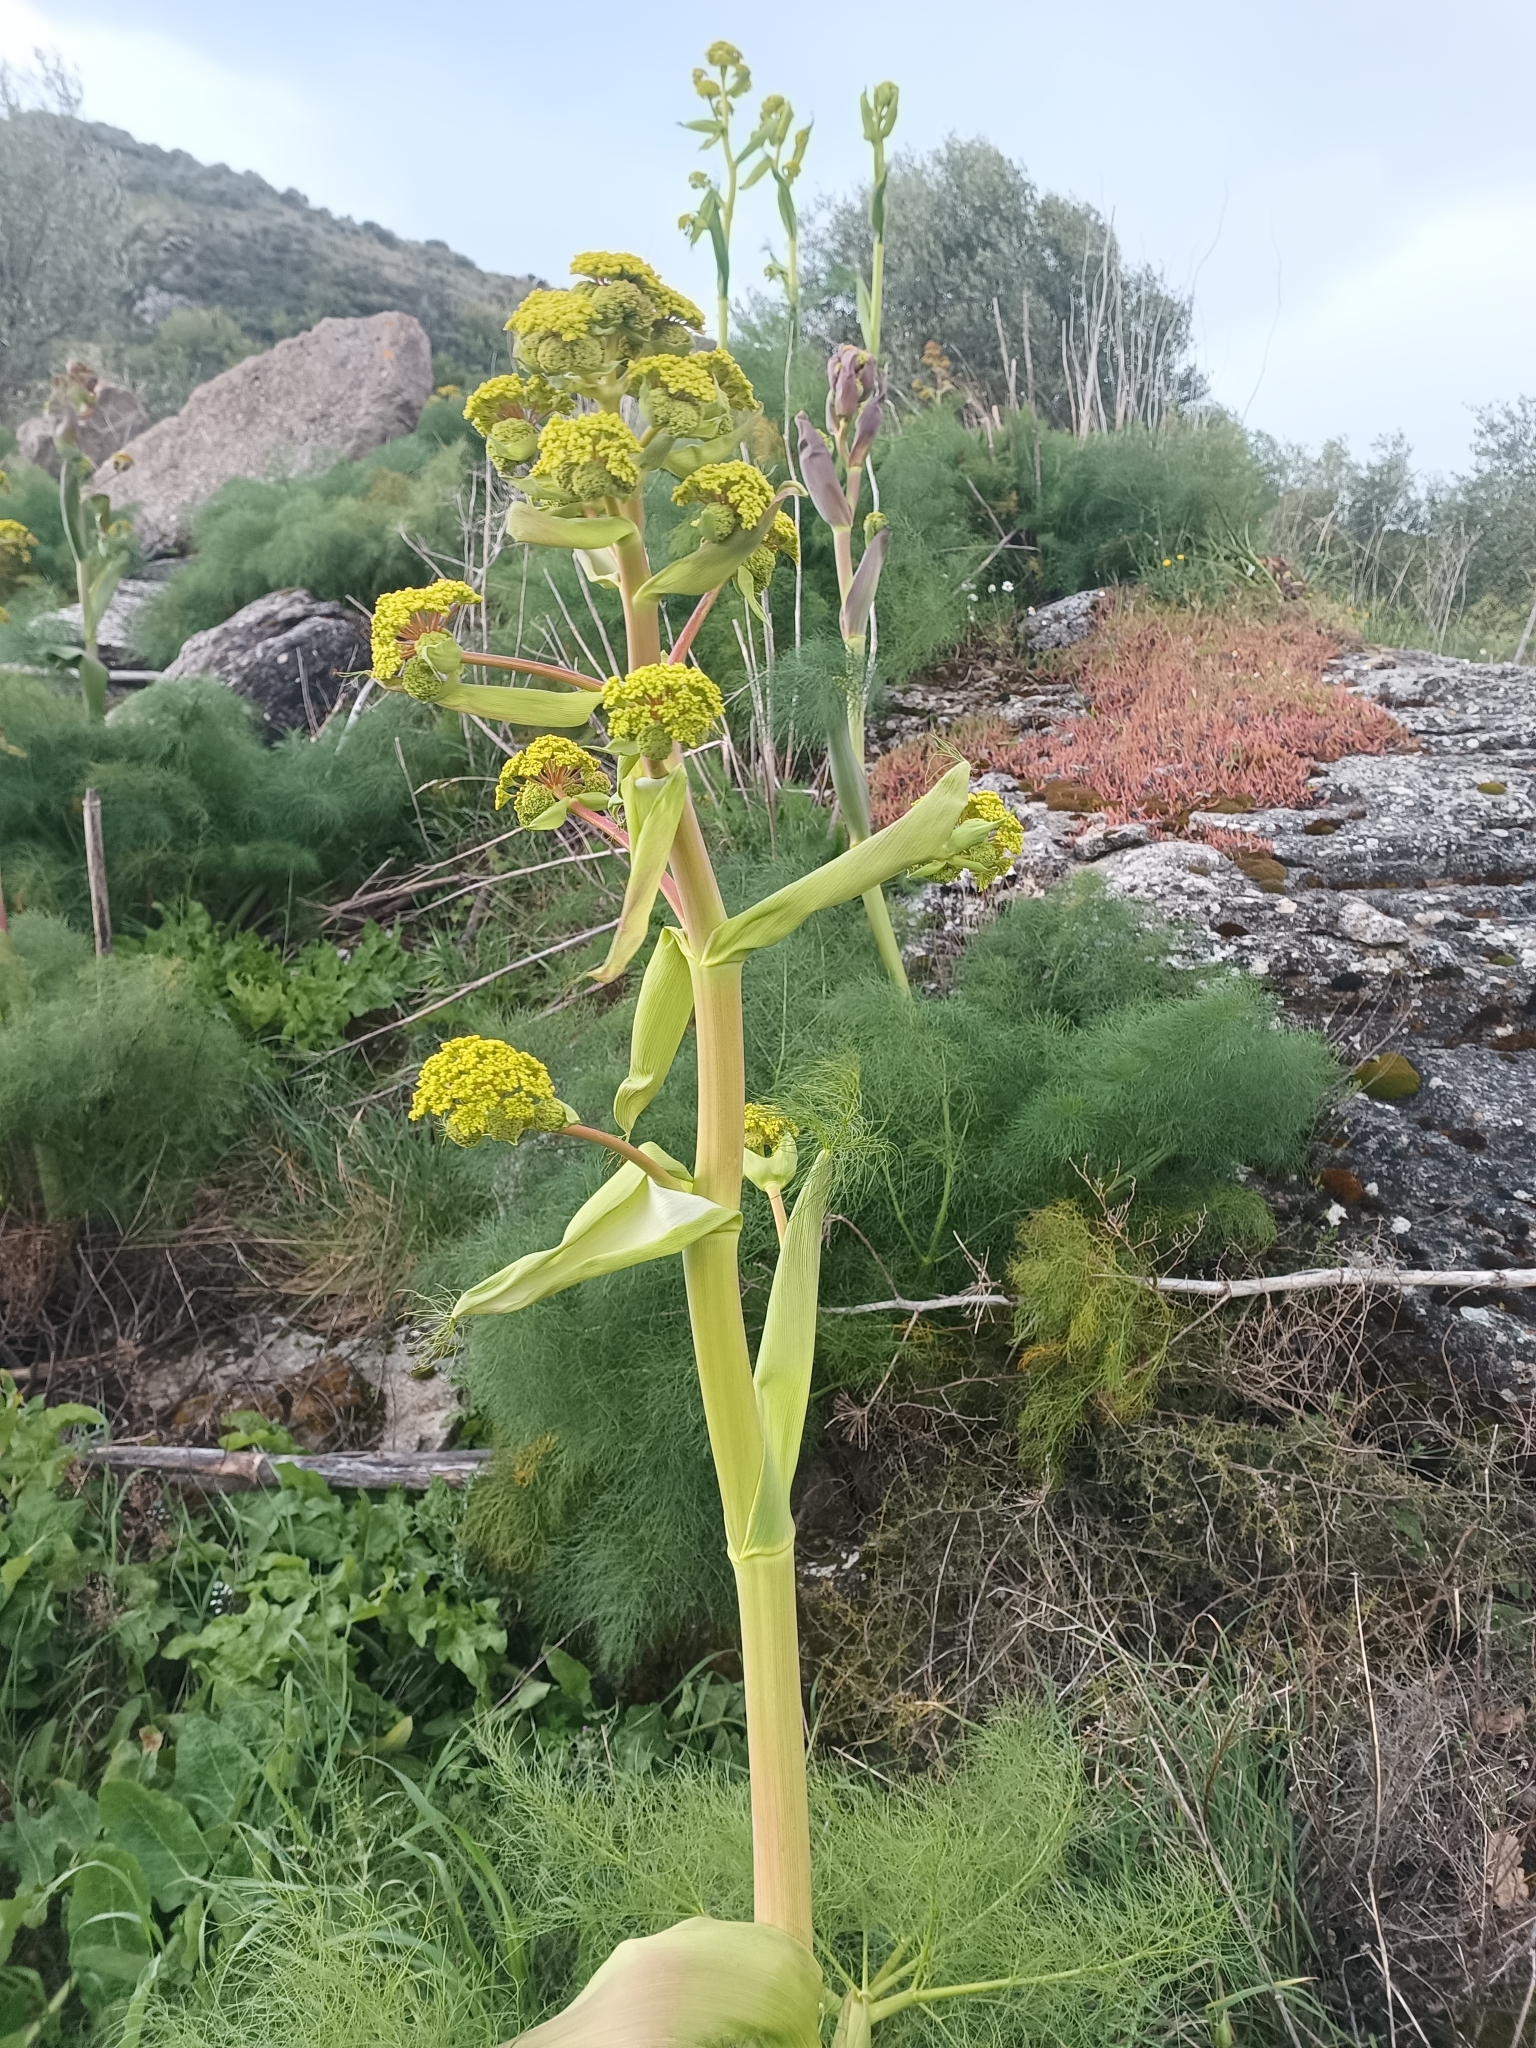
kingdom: Plantae
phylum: Tracheophyta
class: Magnoliopsida
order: Apiales
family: Apiaceae
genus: Ferula
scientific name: Ferula communis
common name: Giant fennel
